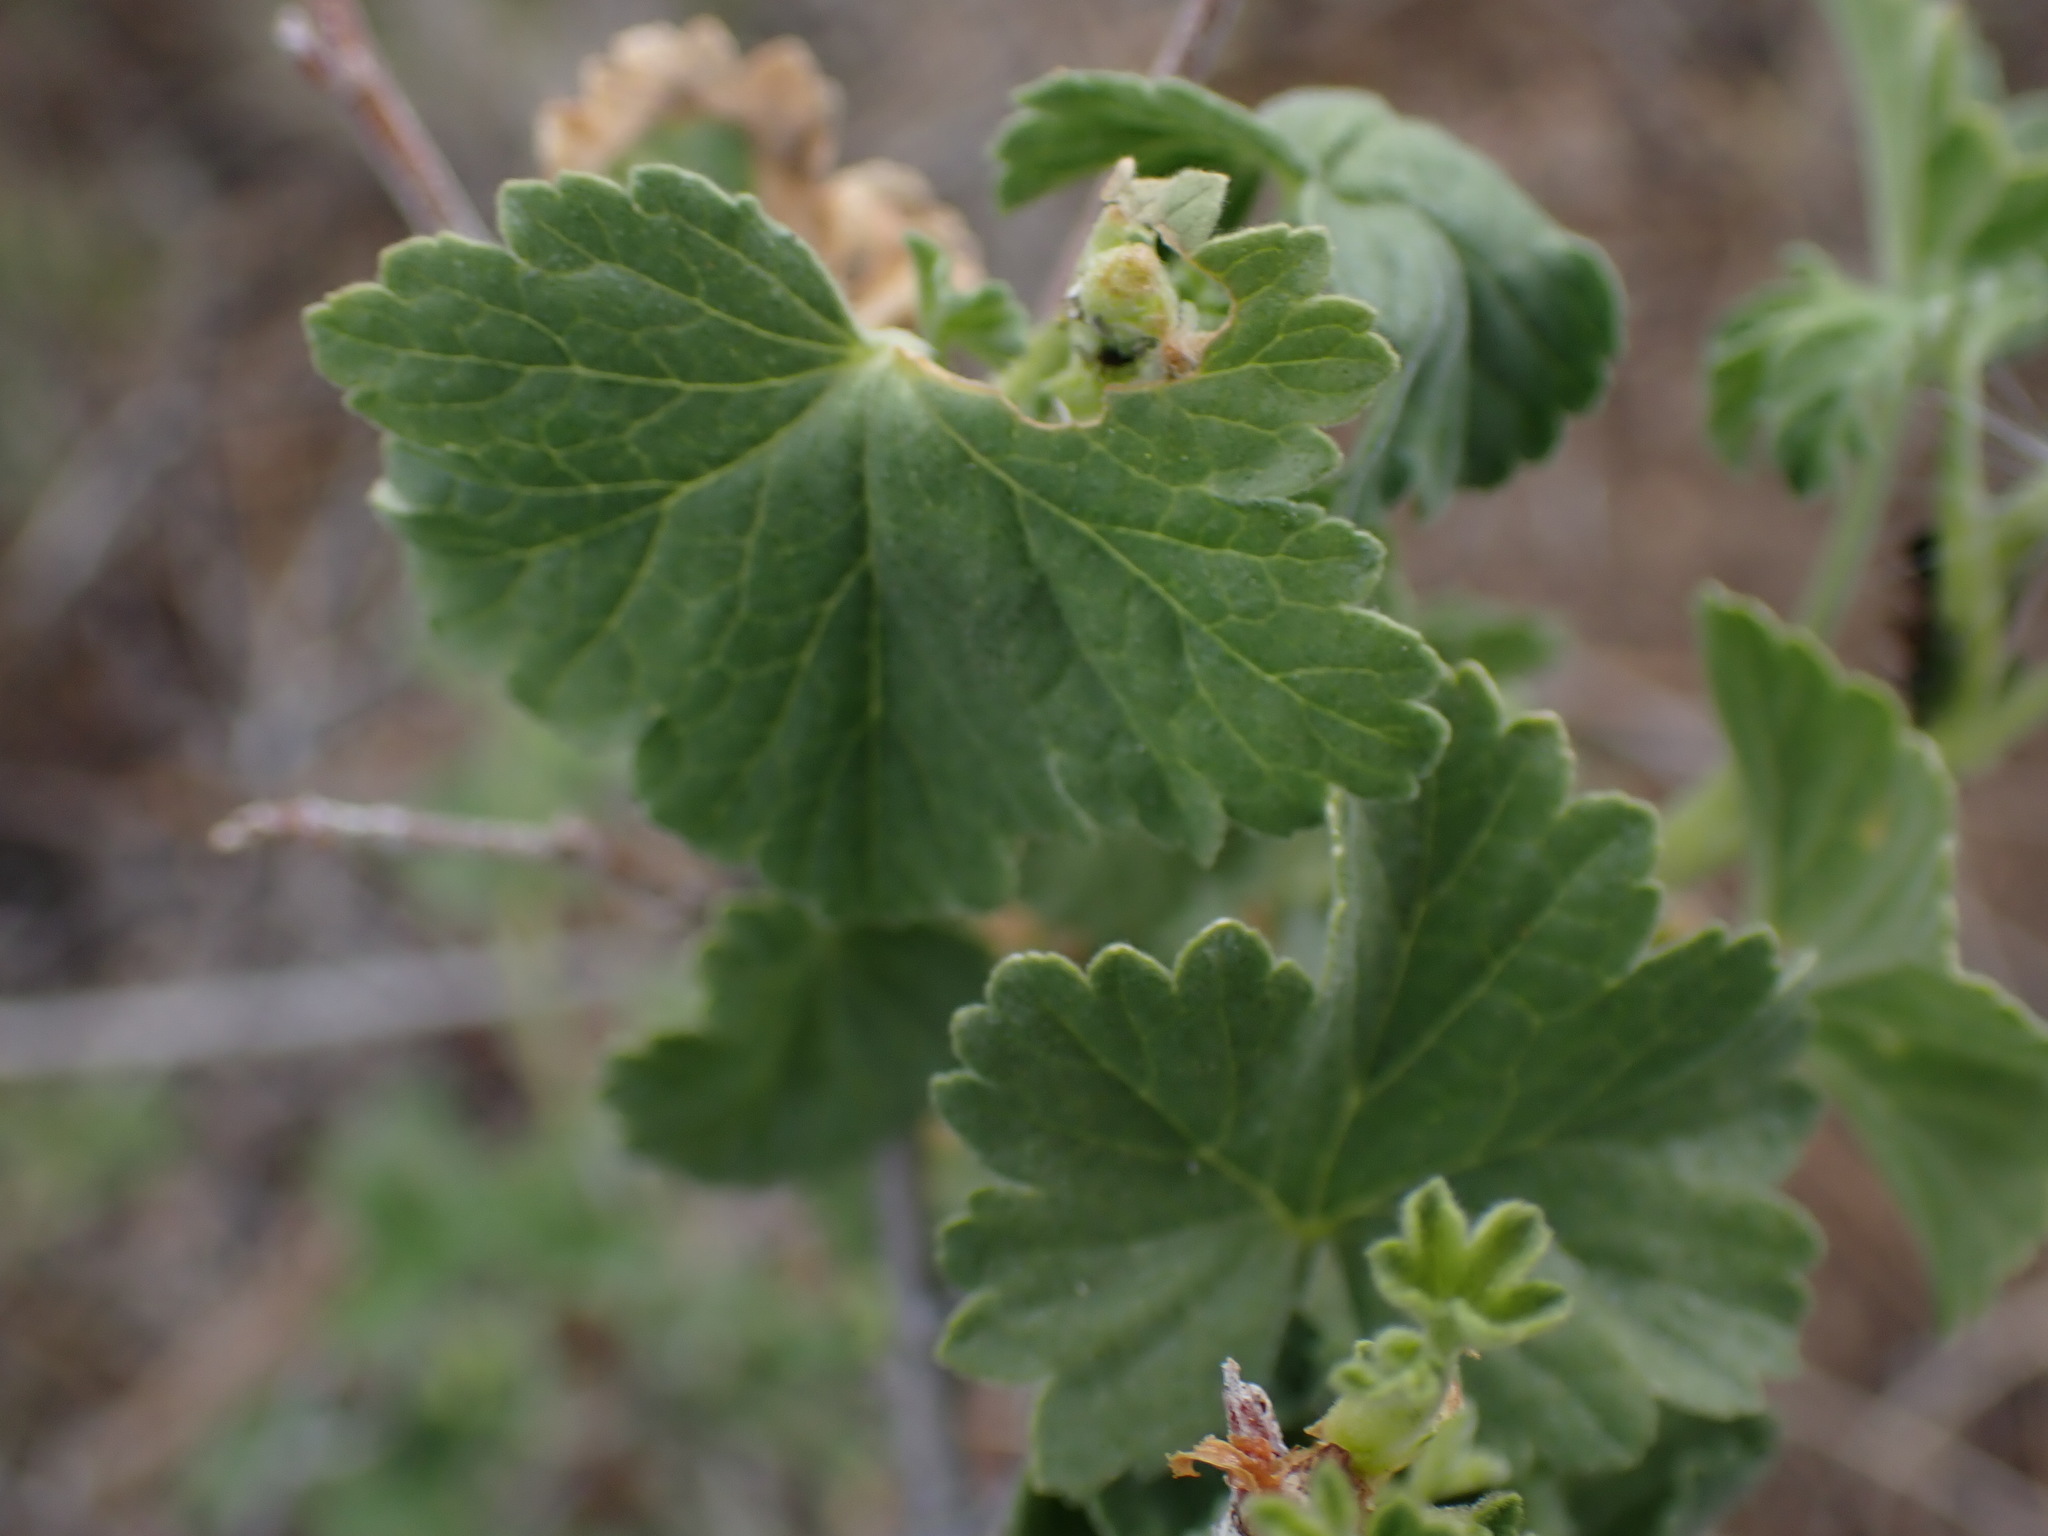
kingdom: Plantae
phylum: Tracheophyta
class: Magnoliopsida
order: Saxifragales
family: Grossulariaceae
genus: Ribes
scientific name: Ribes cereum
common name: Wax currant
